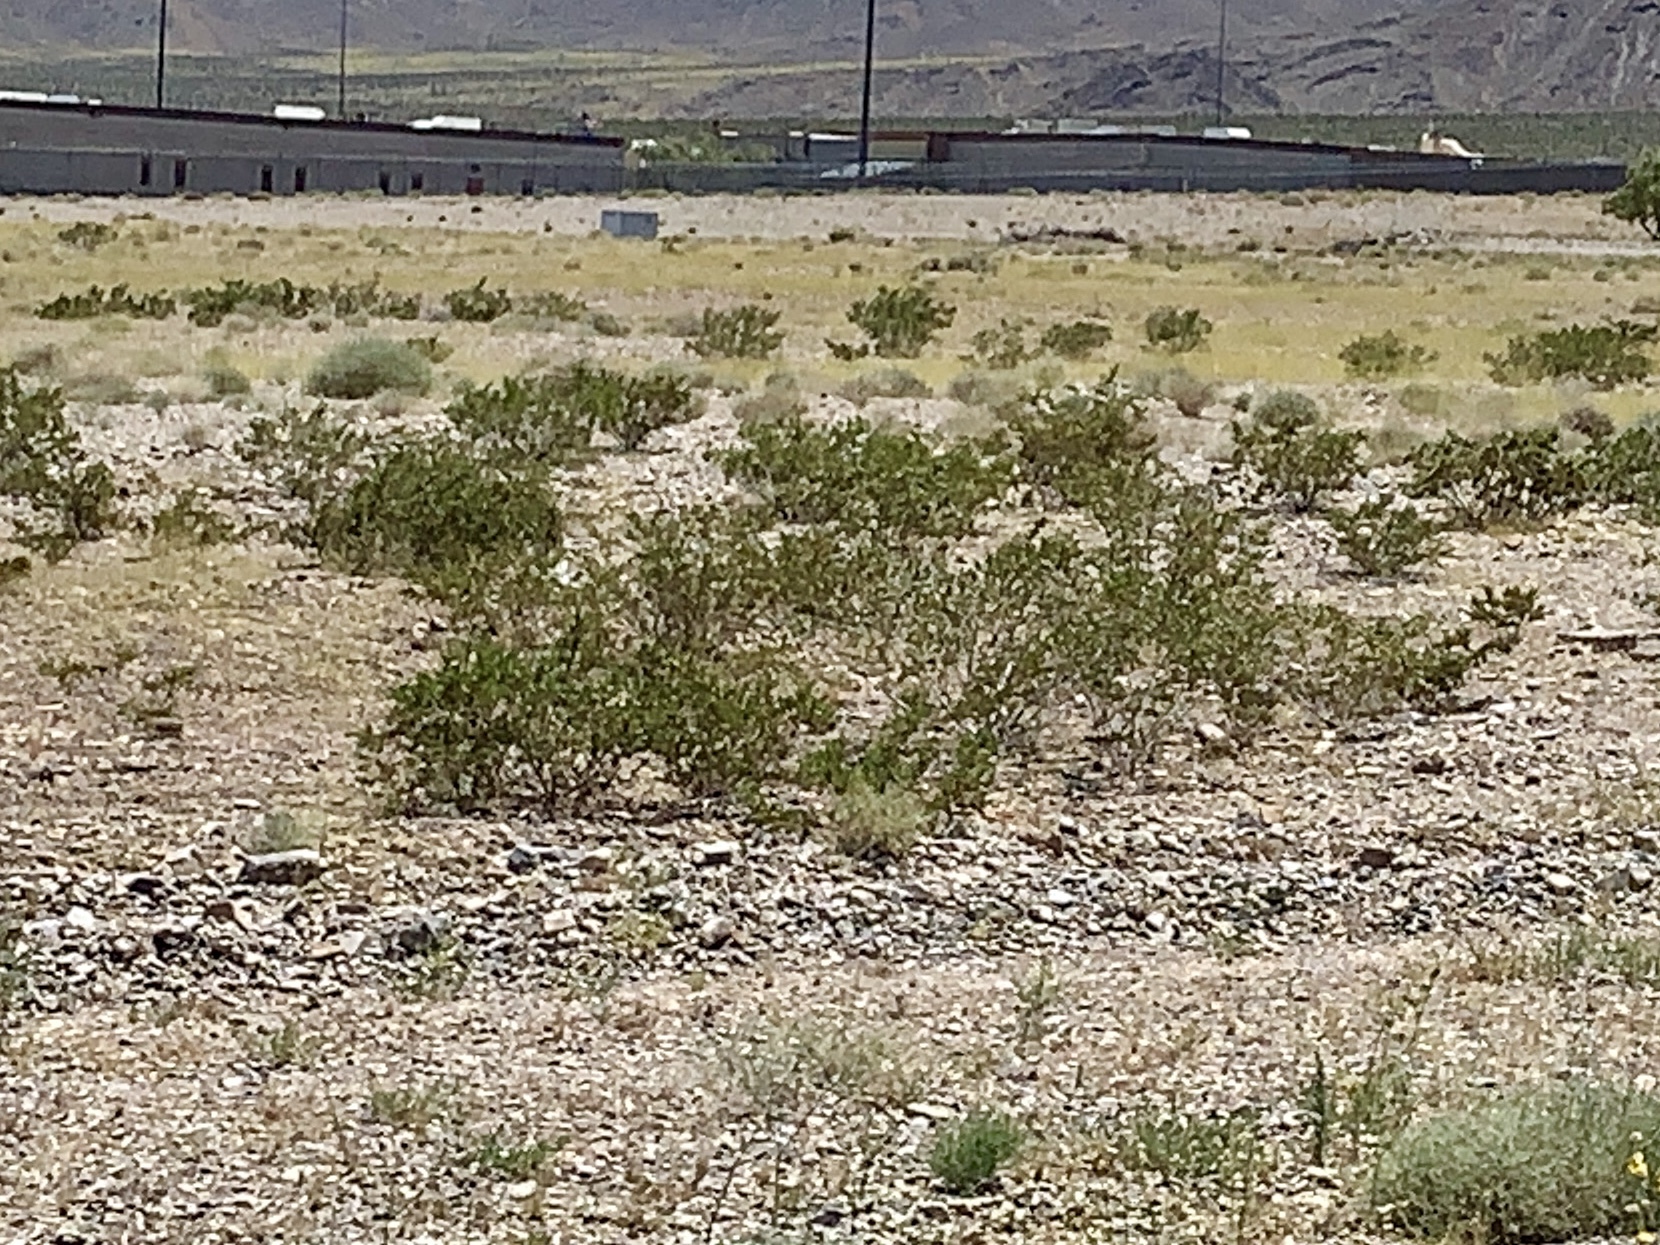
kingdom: Plantae
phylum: Tracheophyta
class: Magnoliopsida
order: Zygophyllales
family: Zygophyllaceae
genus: Larrea
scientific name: Larrea tridentata
